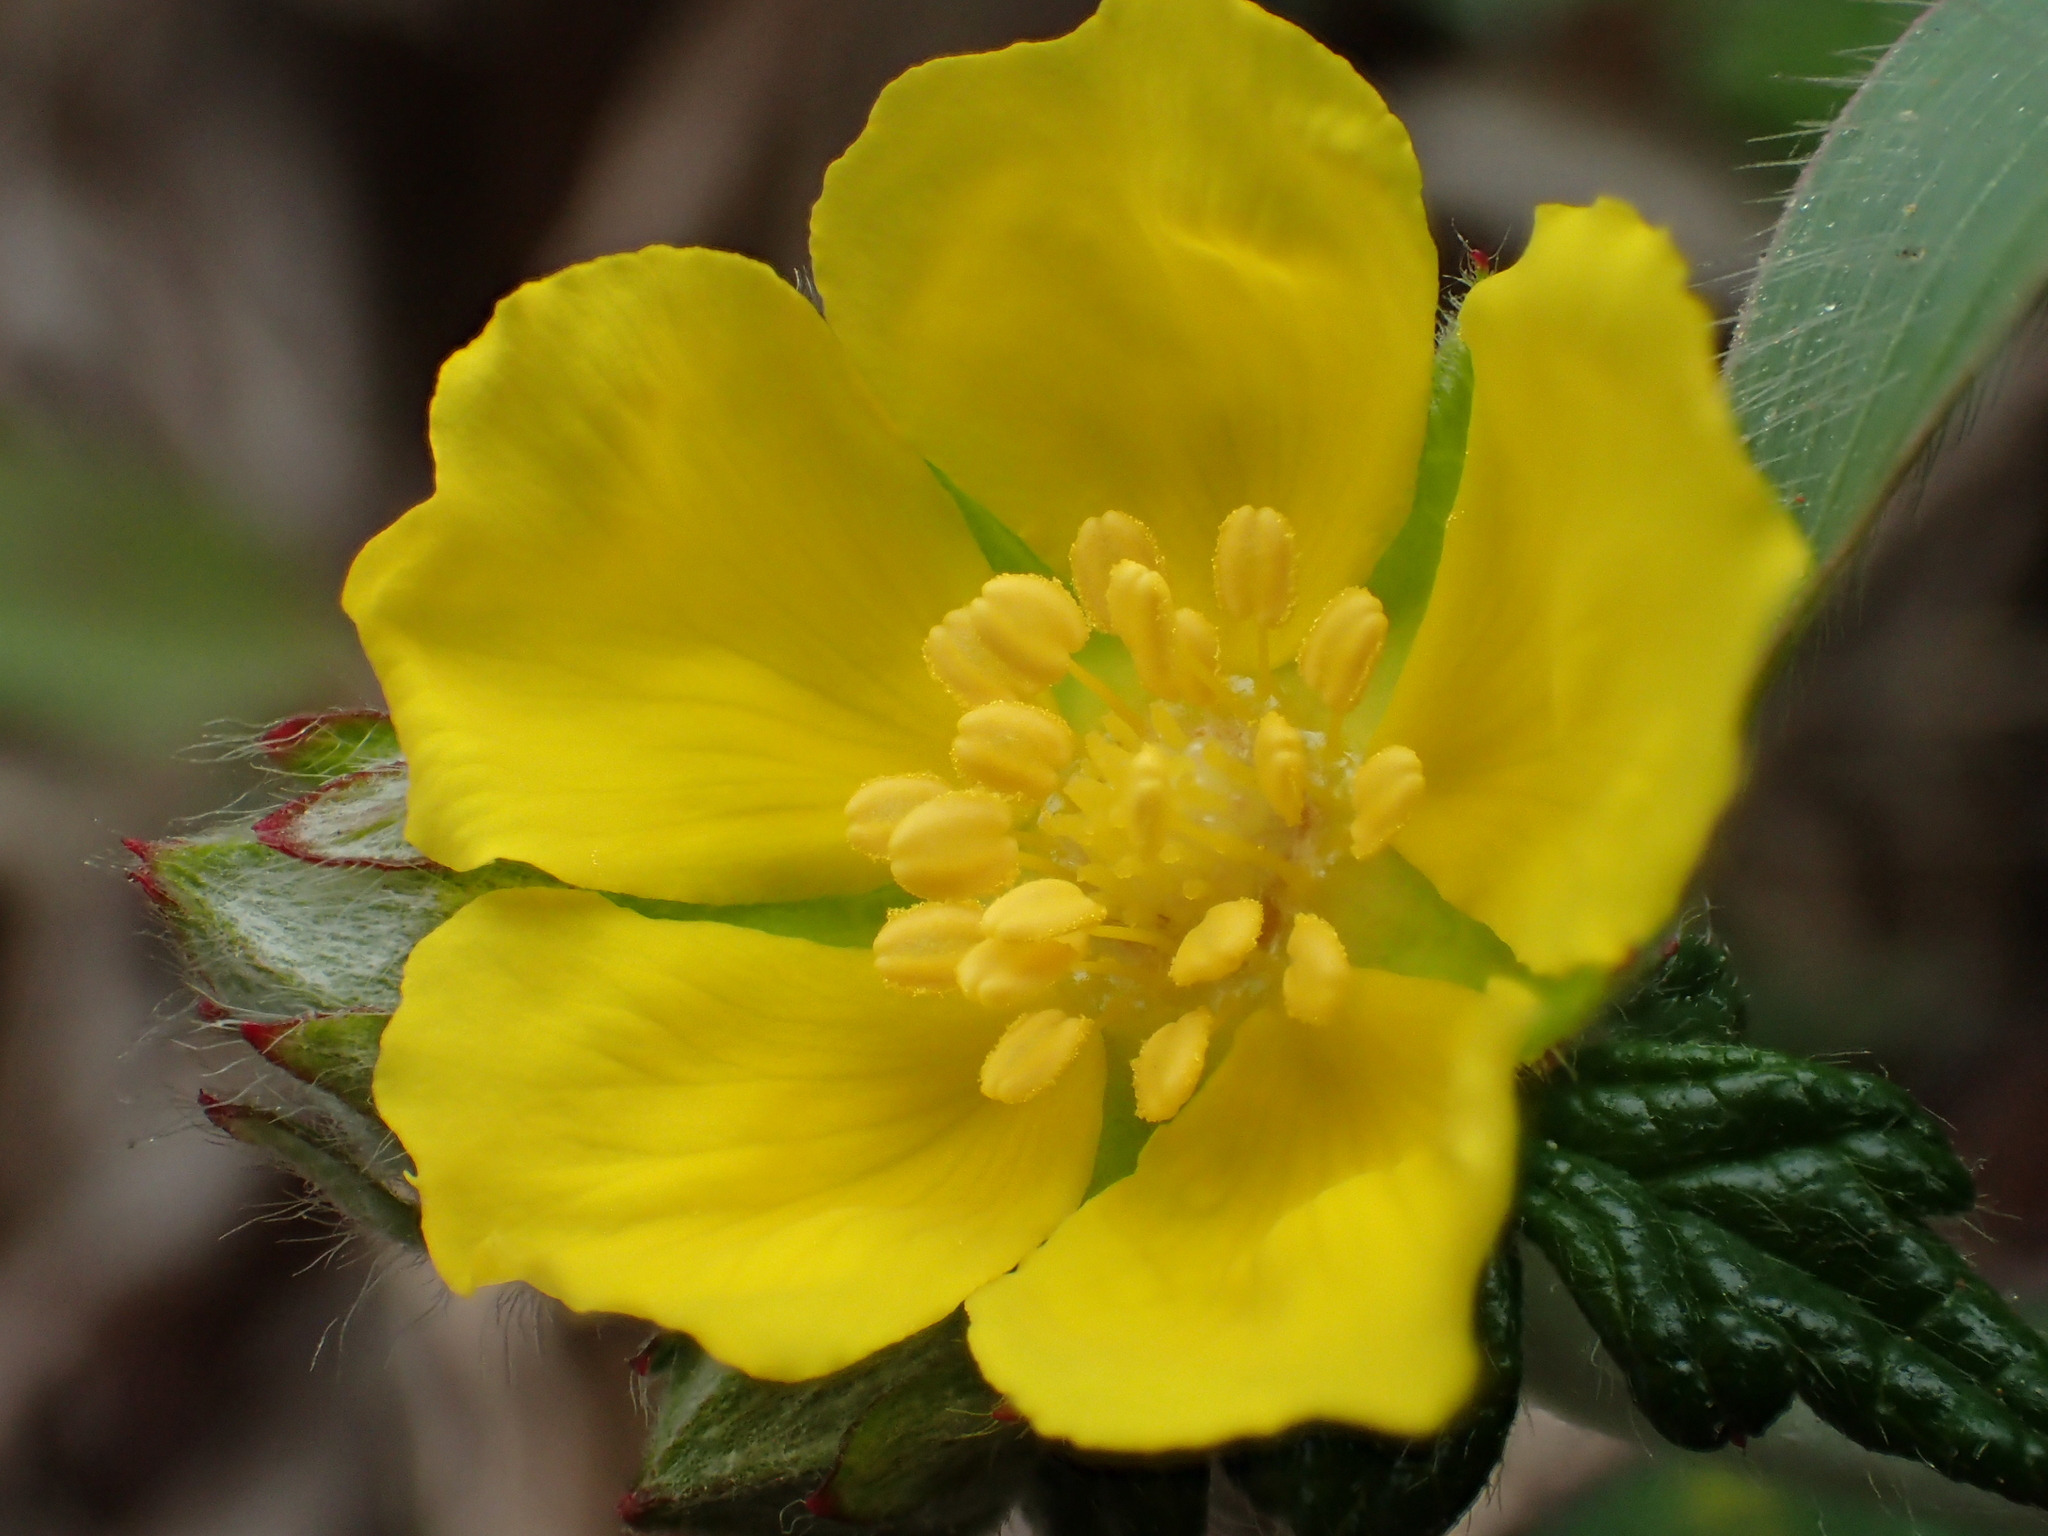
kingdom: Plantae
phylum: Tracheophyta
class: Magnoliopsida
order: Rosales
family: Rosaceae
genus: Potentilla
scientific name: Potentilla discolor
